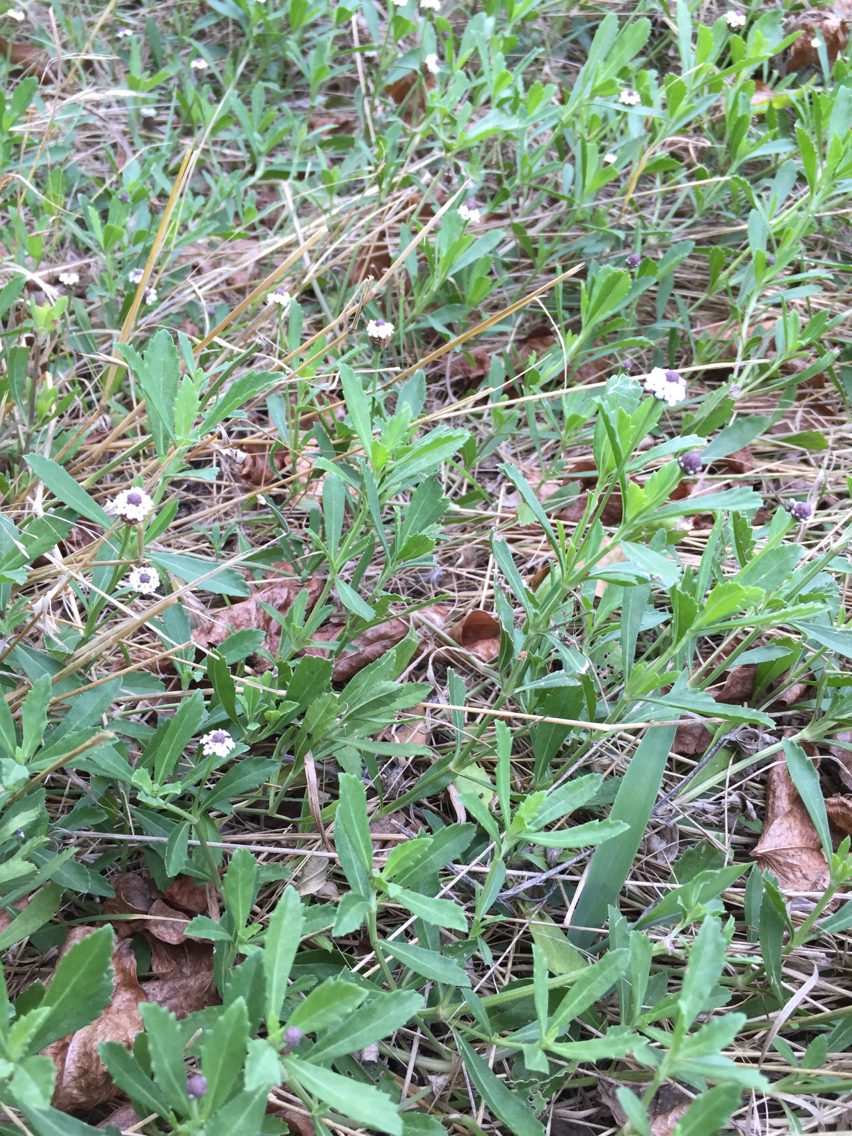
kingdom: Plantae
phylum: Tracheophyta
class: Magnoliopsida
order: Lamiales
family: Verbenaceae
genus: Phyla
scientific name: Phyla nodiflora
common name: Frogfruit
